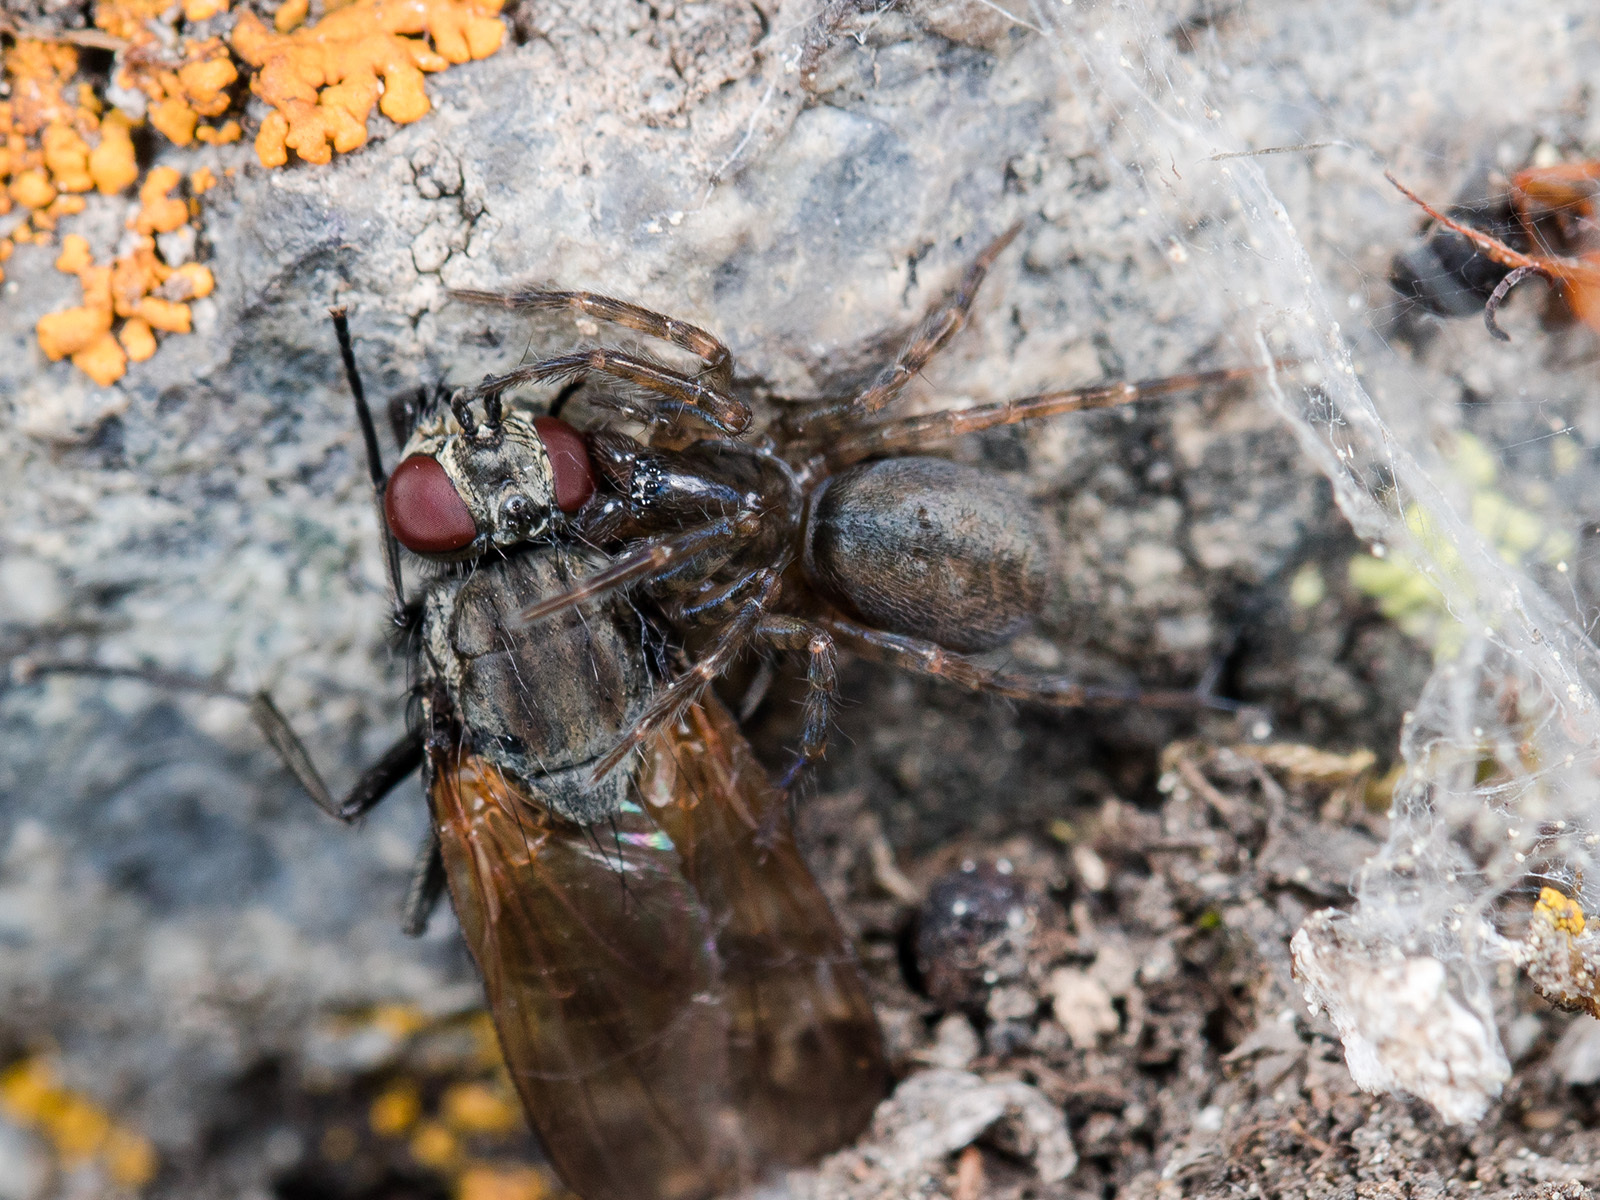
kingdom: Animalia
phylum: Arthropoda
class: Arachnida
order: Araneae
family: Hahniidae
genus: Asiohahnia
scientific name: Asiohahnia alatavica
